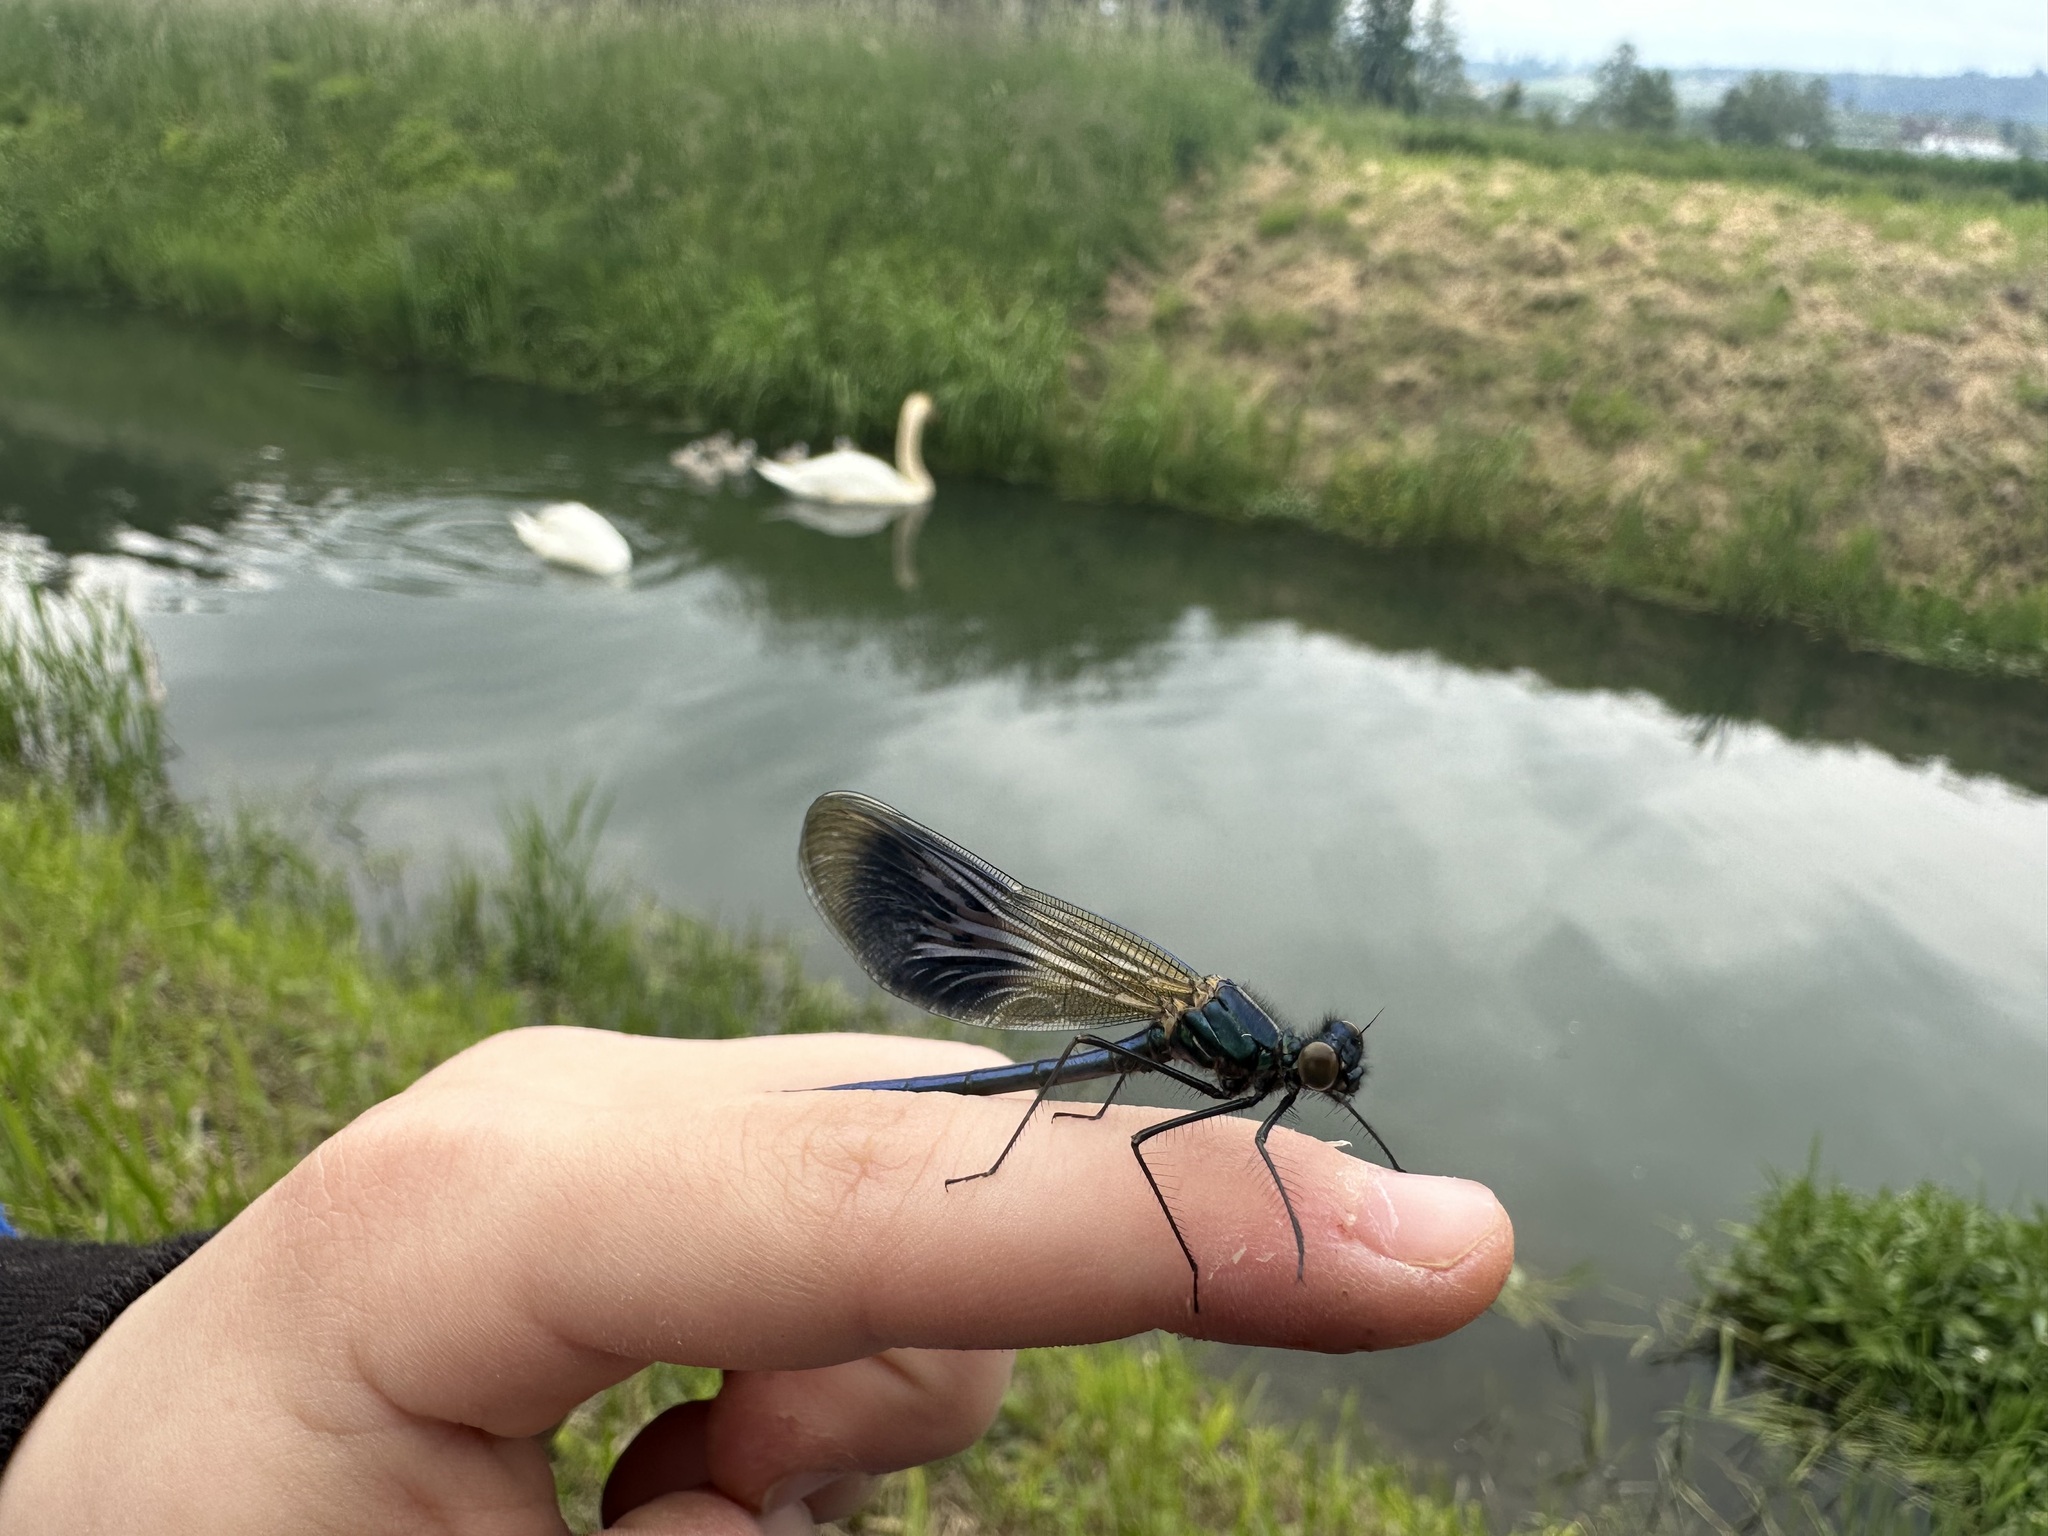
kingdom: Animalia
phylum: Arthropoda
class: Insecta
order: Odonata
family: Calopterygidae
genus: Calopteryx
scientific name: Calopteryx splendens
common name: Banded demoiselle
